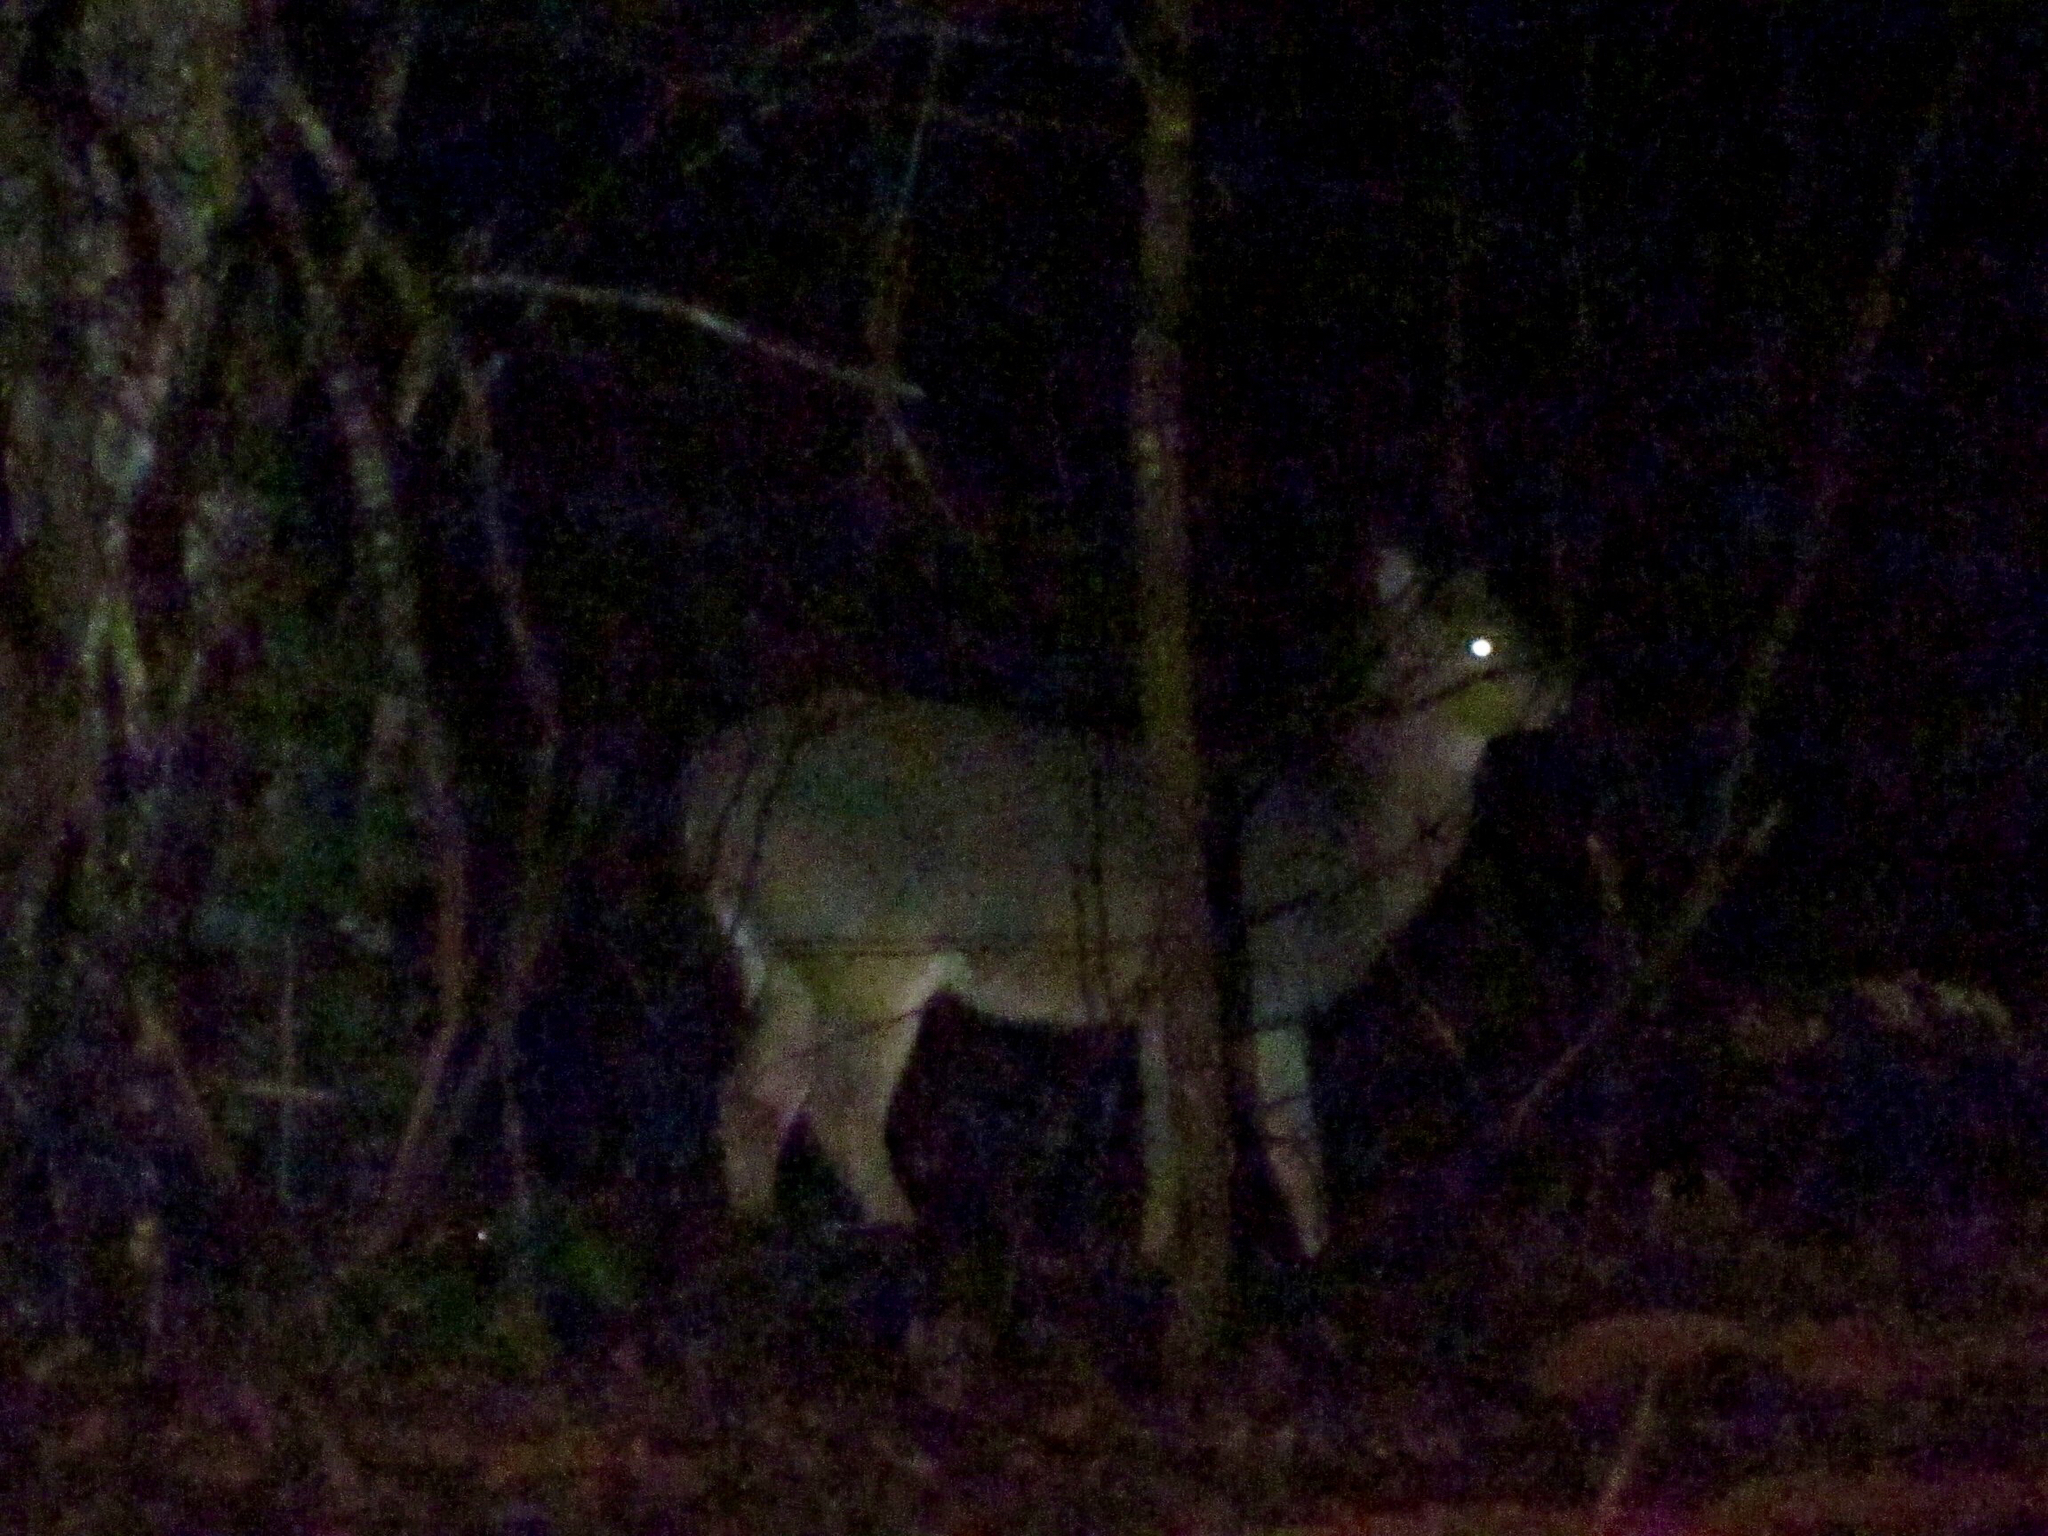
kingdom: Animalia
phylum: Chordata
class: Mammalia
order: Artiodactyla
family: Cervidae
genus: Odocoileus
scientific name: Odocoileus virginianus
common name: White-tailed deer
